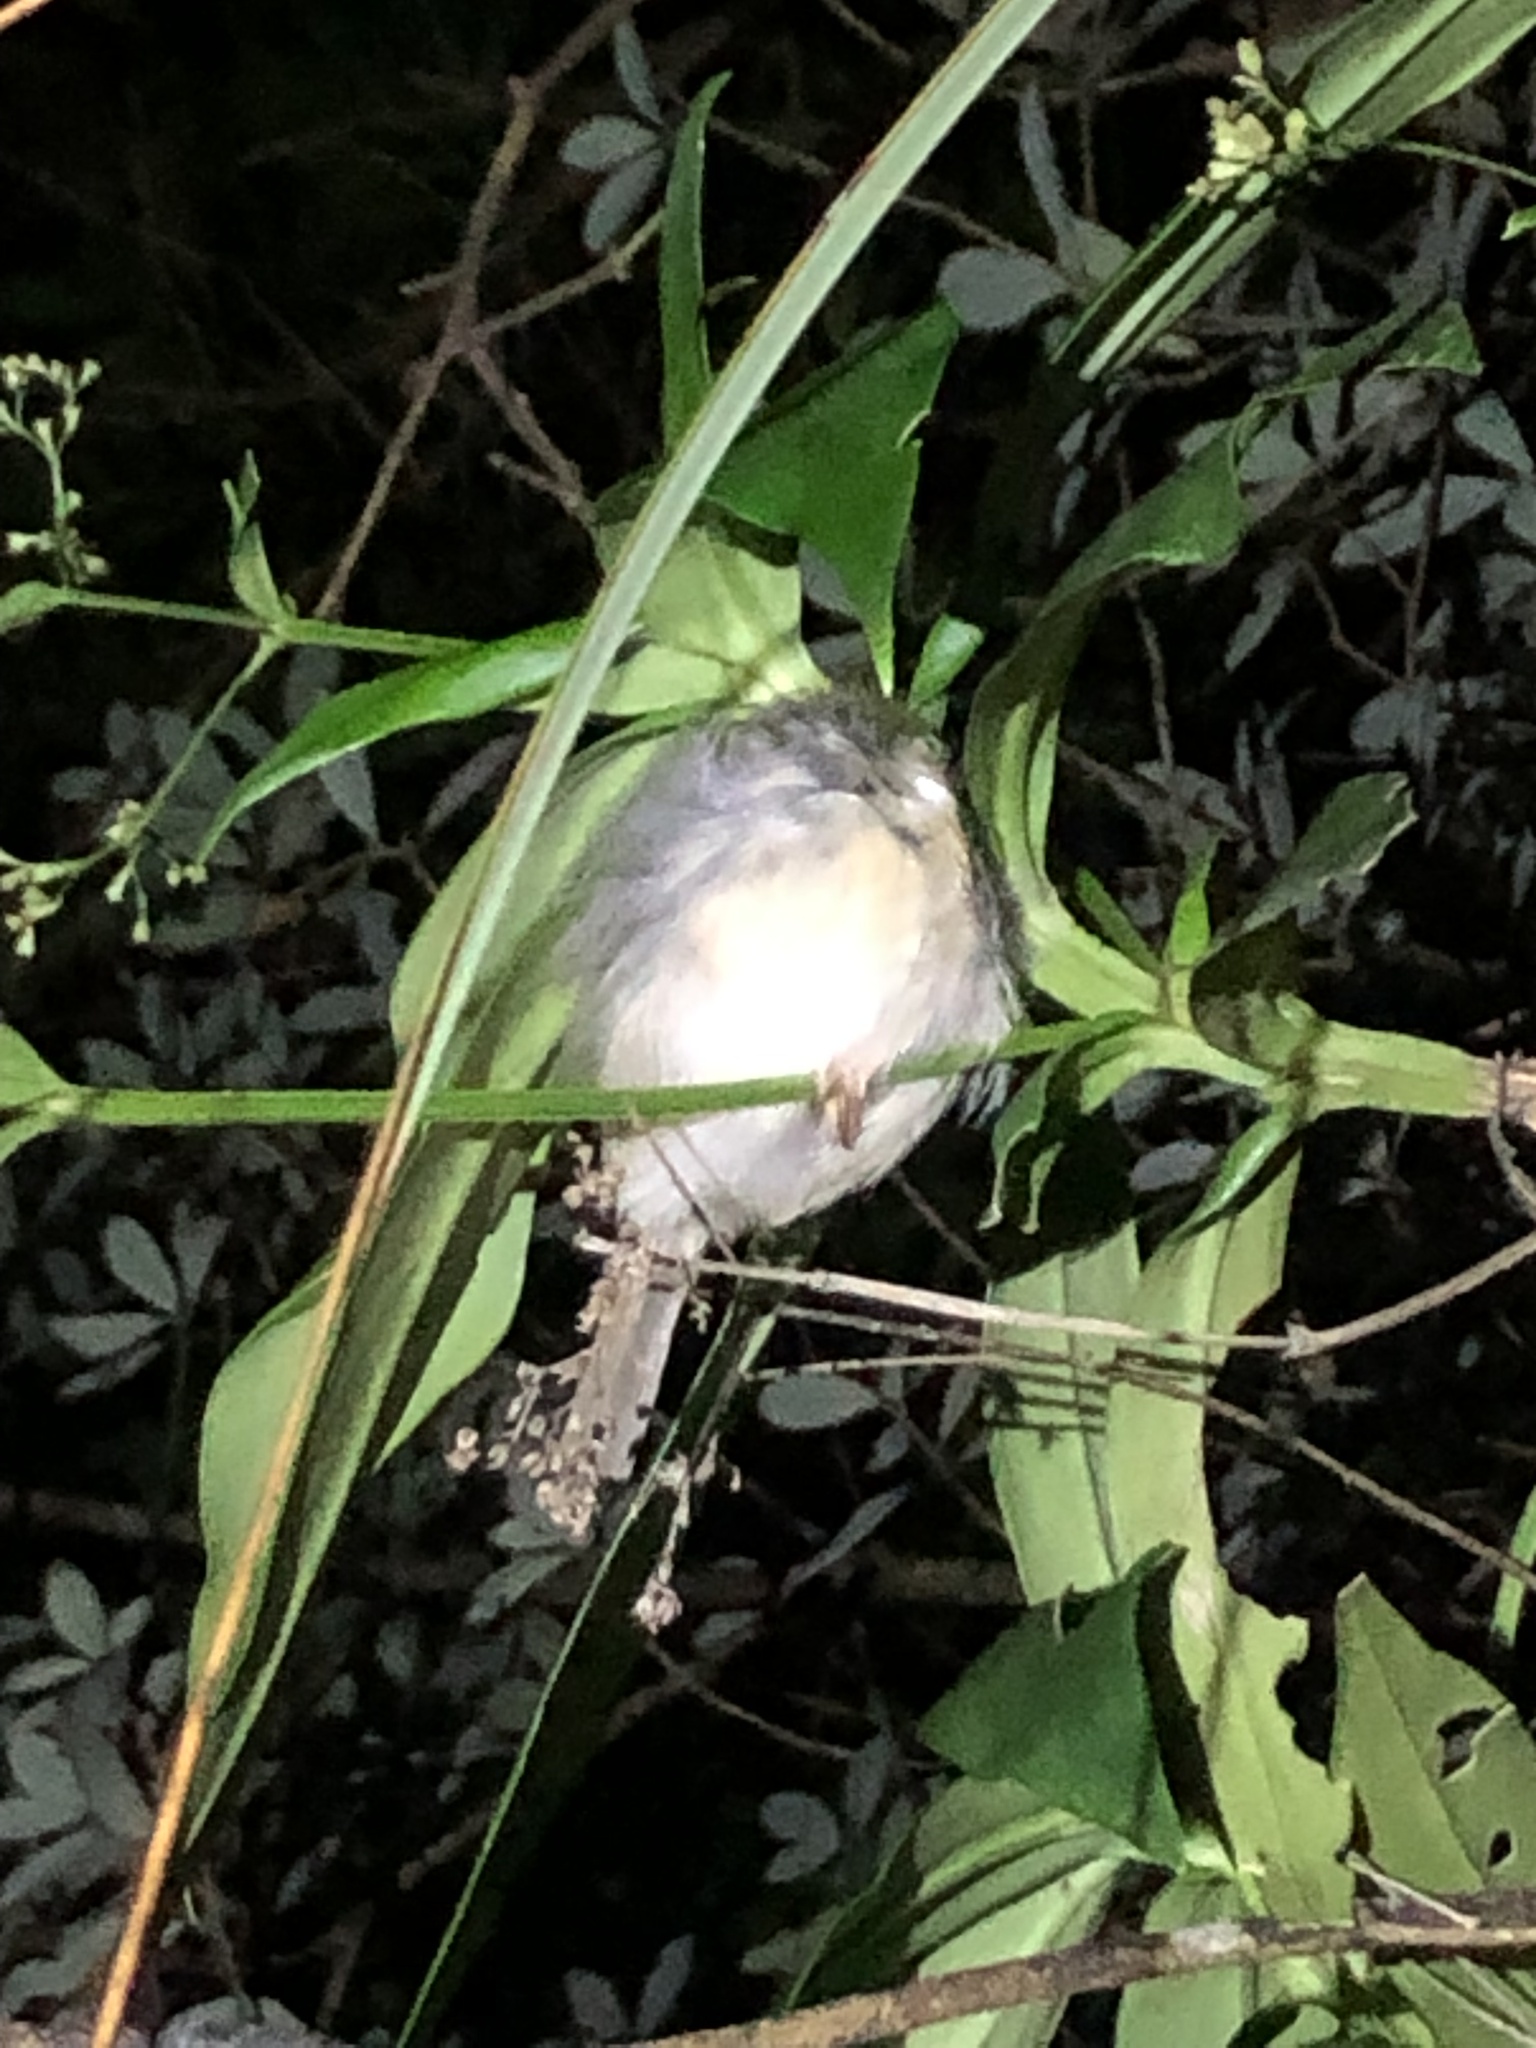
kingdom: Animalia
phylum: Chordata
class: Aves
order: Passeriformes
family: Cisticolidae
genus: Orthotomus
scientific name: Orthotomus sutorius
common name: Common tailorbird
